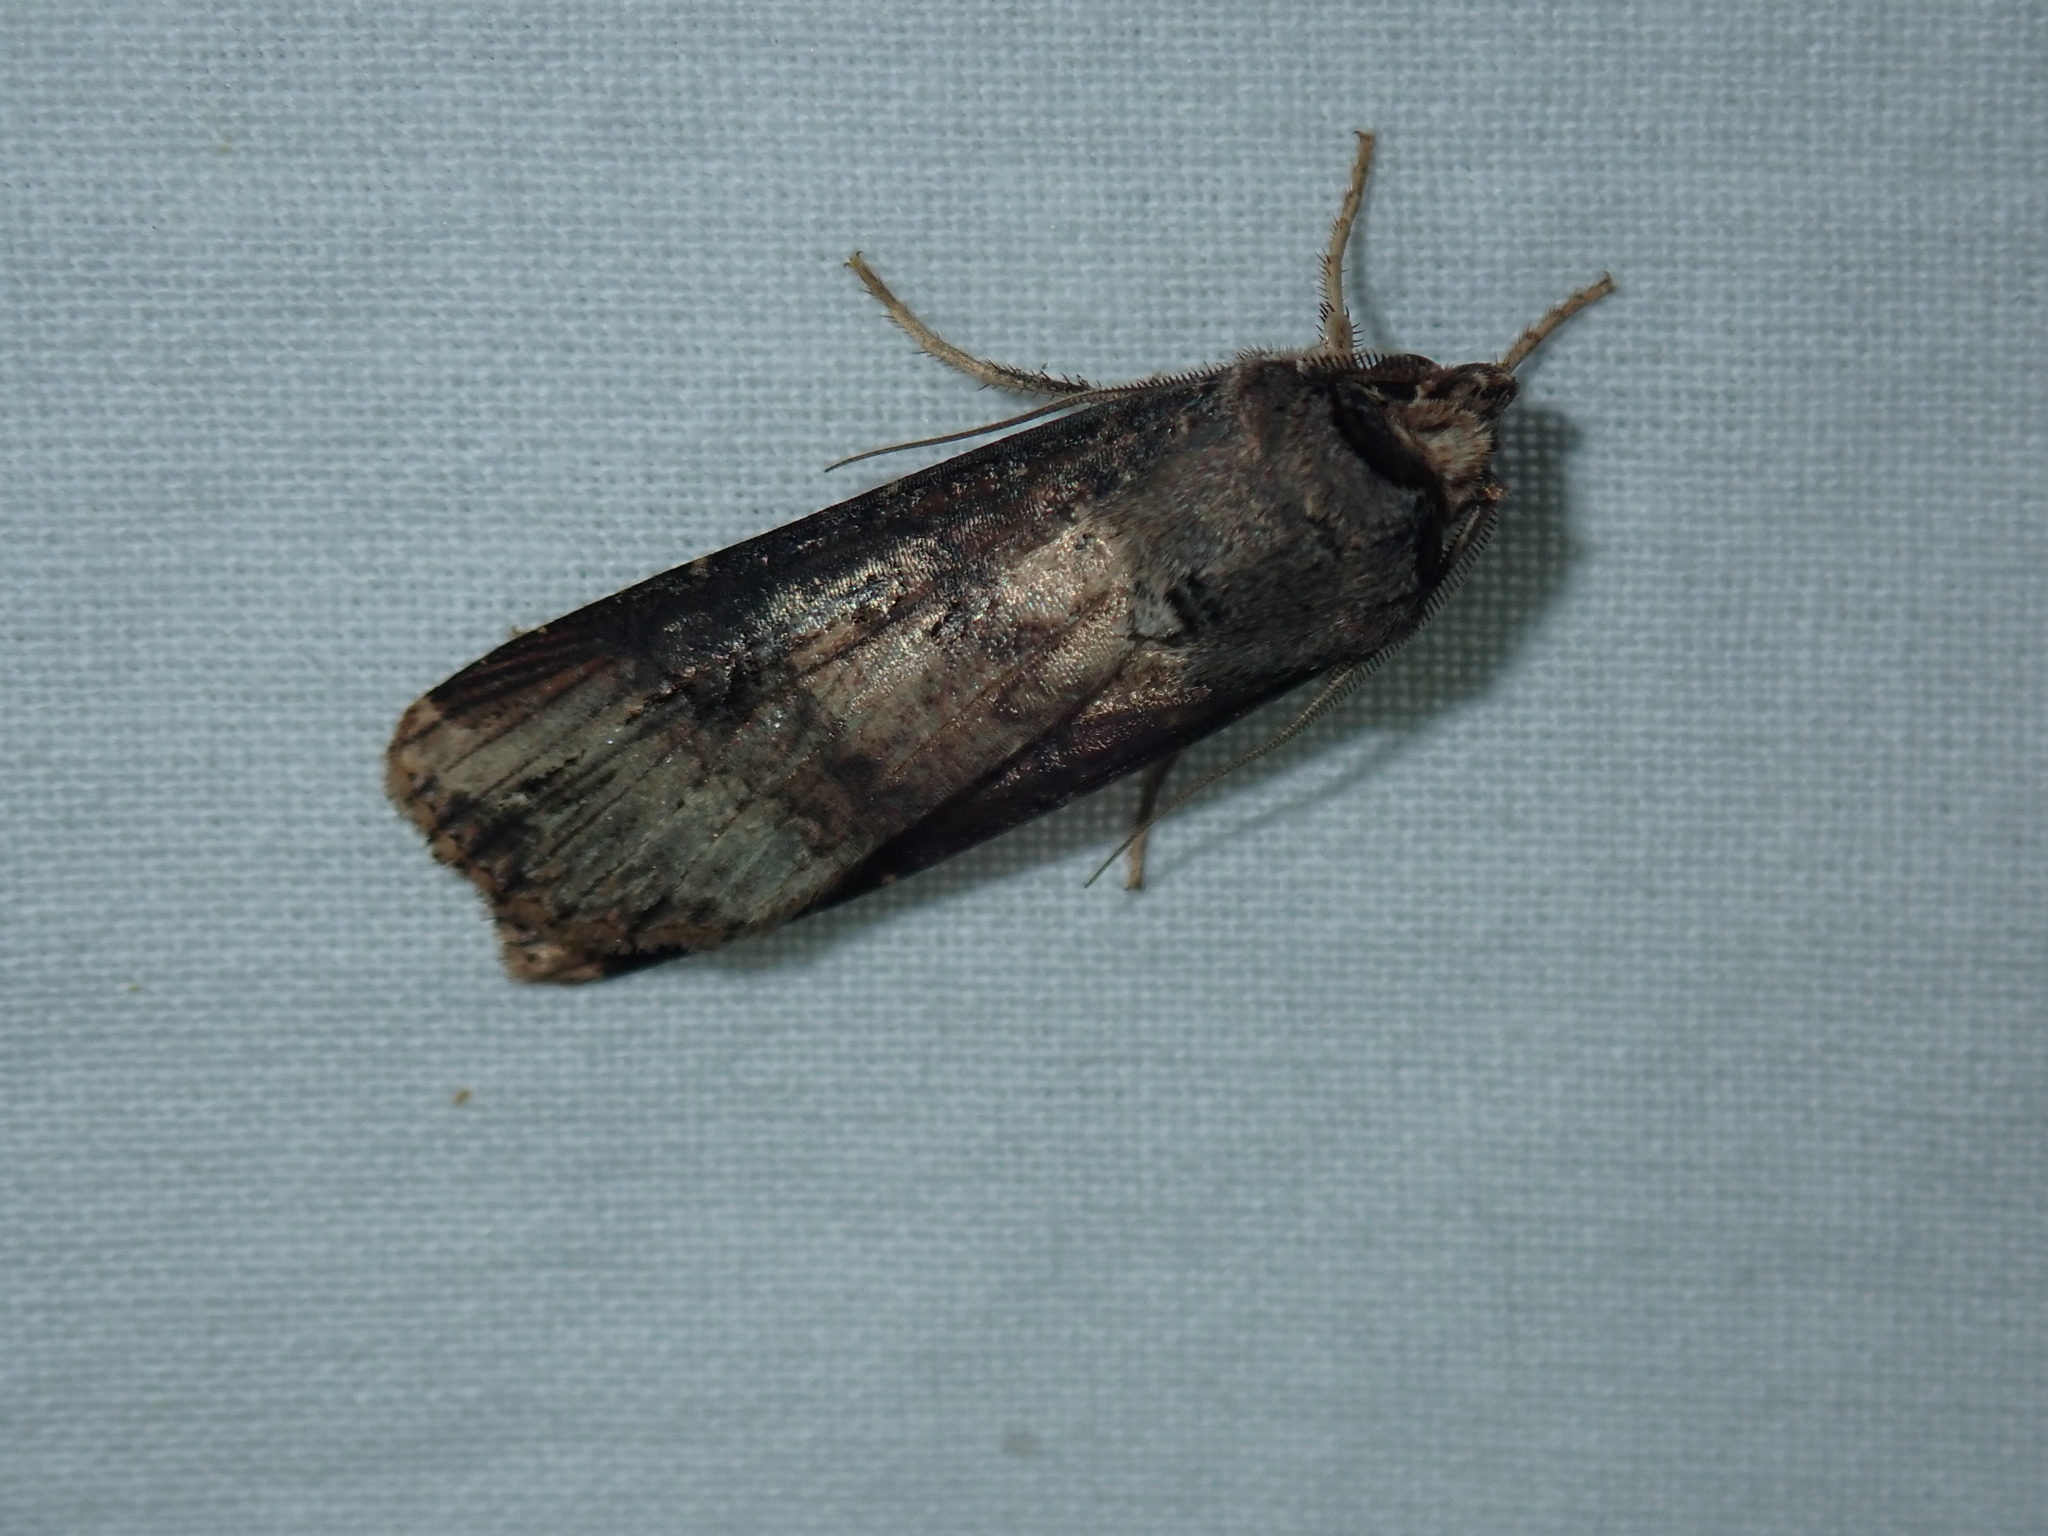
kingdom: Animalia
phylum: Arthropoda
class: Insecta
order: Lepidoptera
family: Noctuidae
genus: Agrotis
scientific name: Agrotis ipsilon
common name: Dark sword-grass
